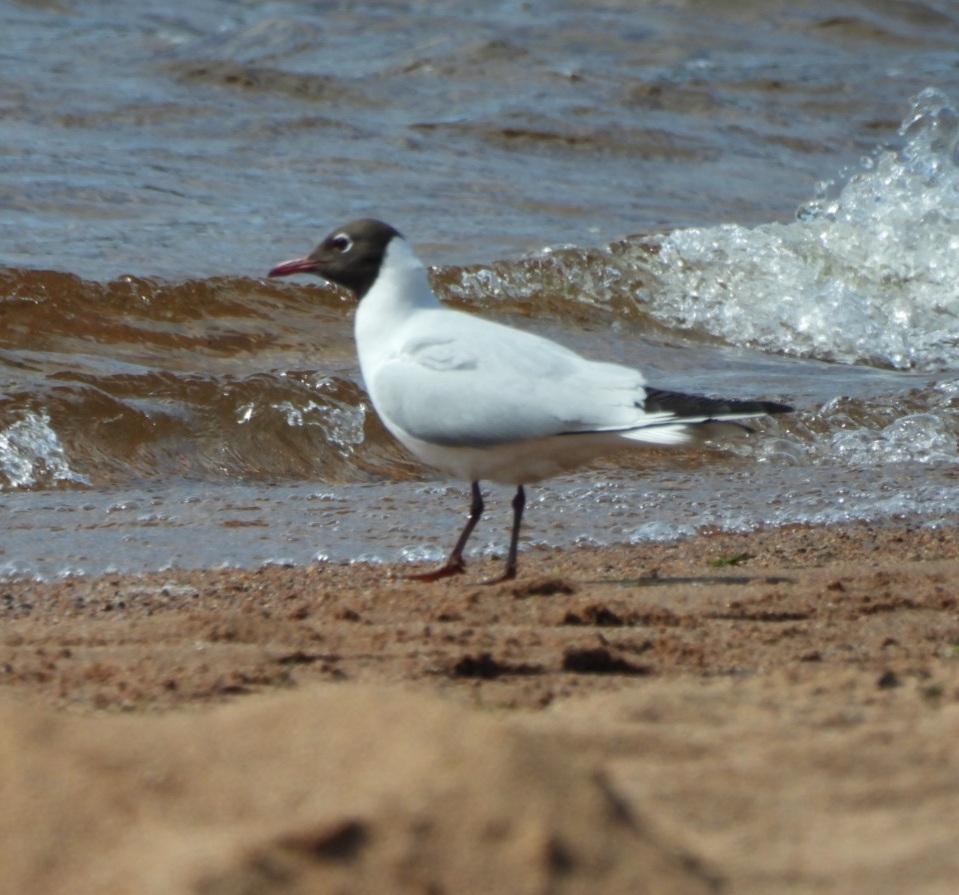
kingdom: Animalia
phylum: Chordata
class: Aves
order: Charadriiformes
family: Laridae
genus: Chroicocephalus
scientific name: Chroicocephalus ridibundus
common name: Black-headed gull
